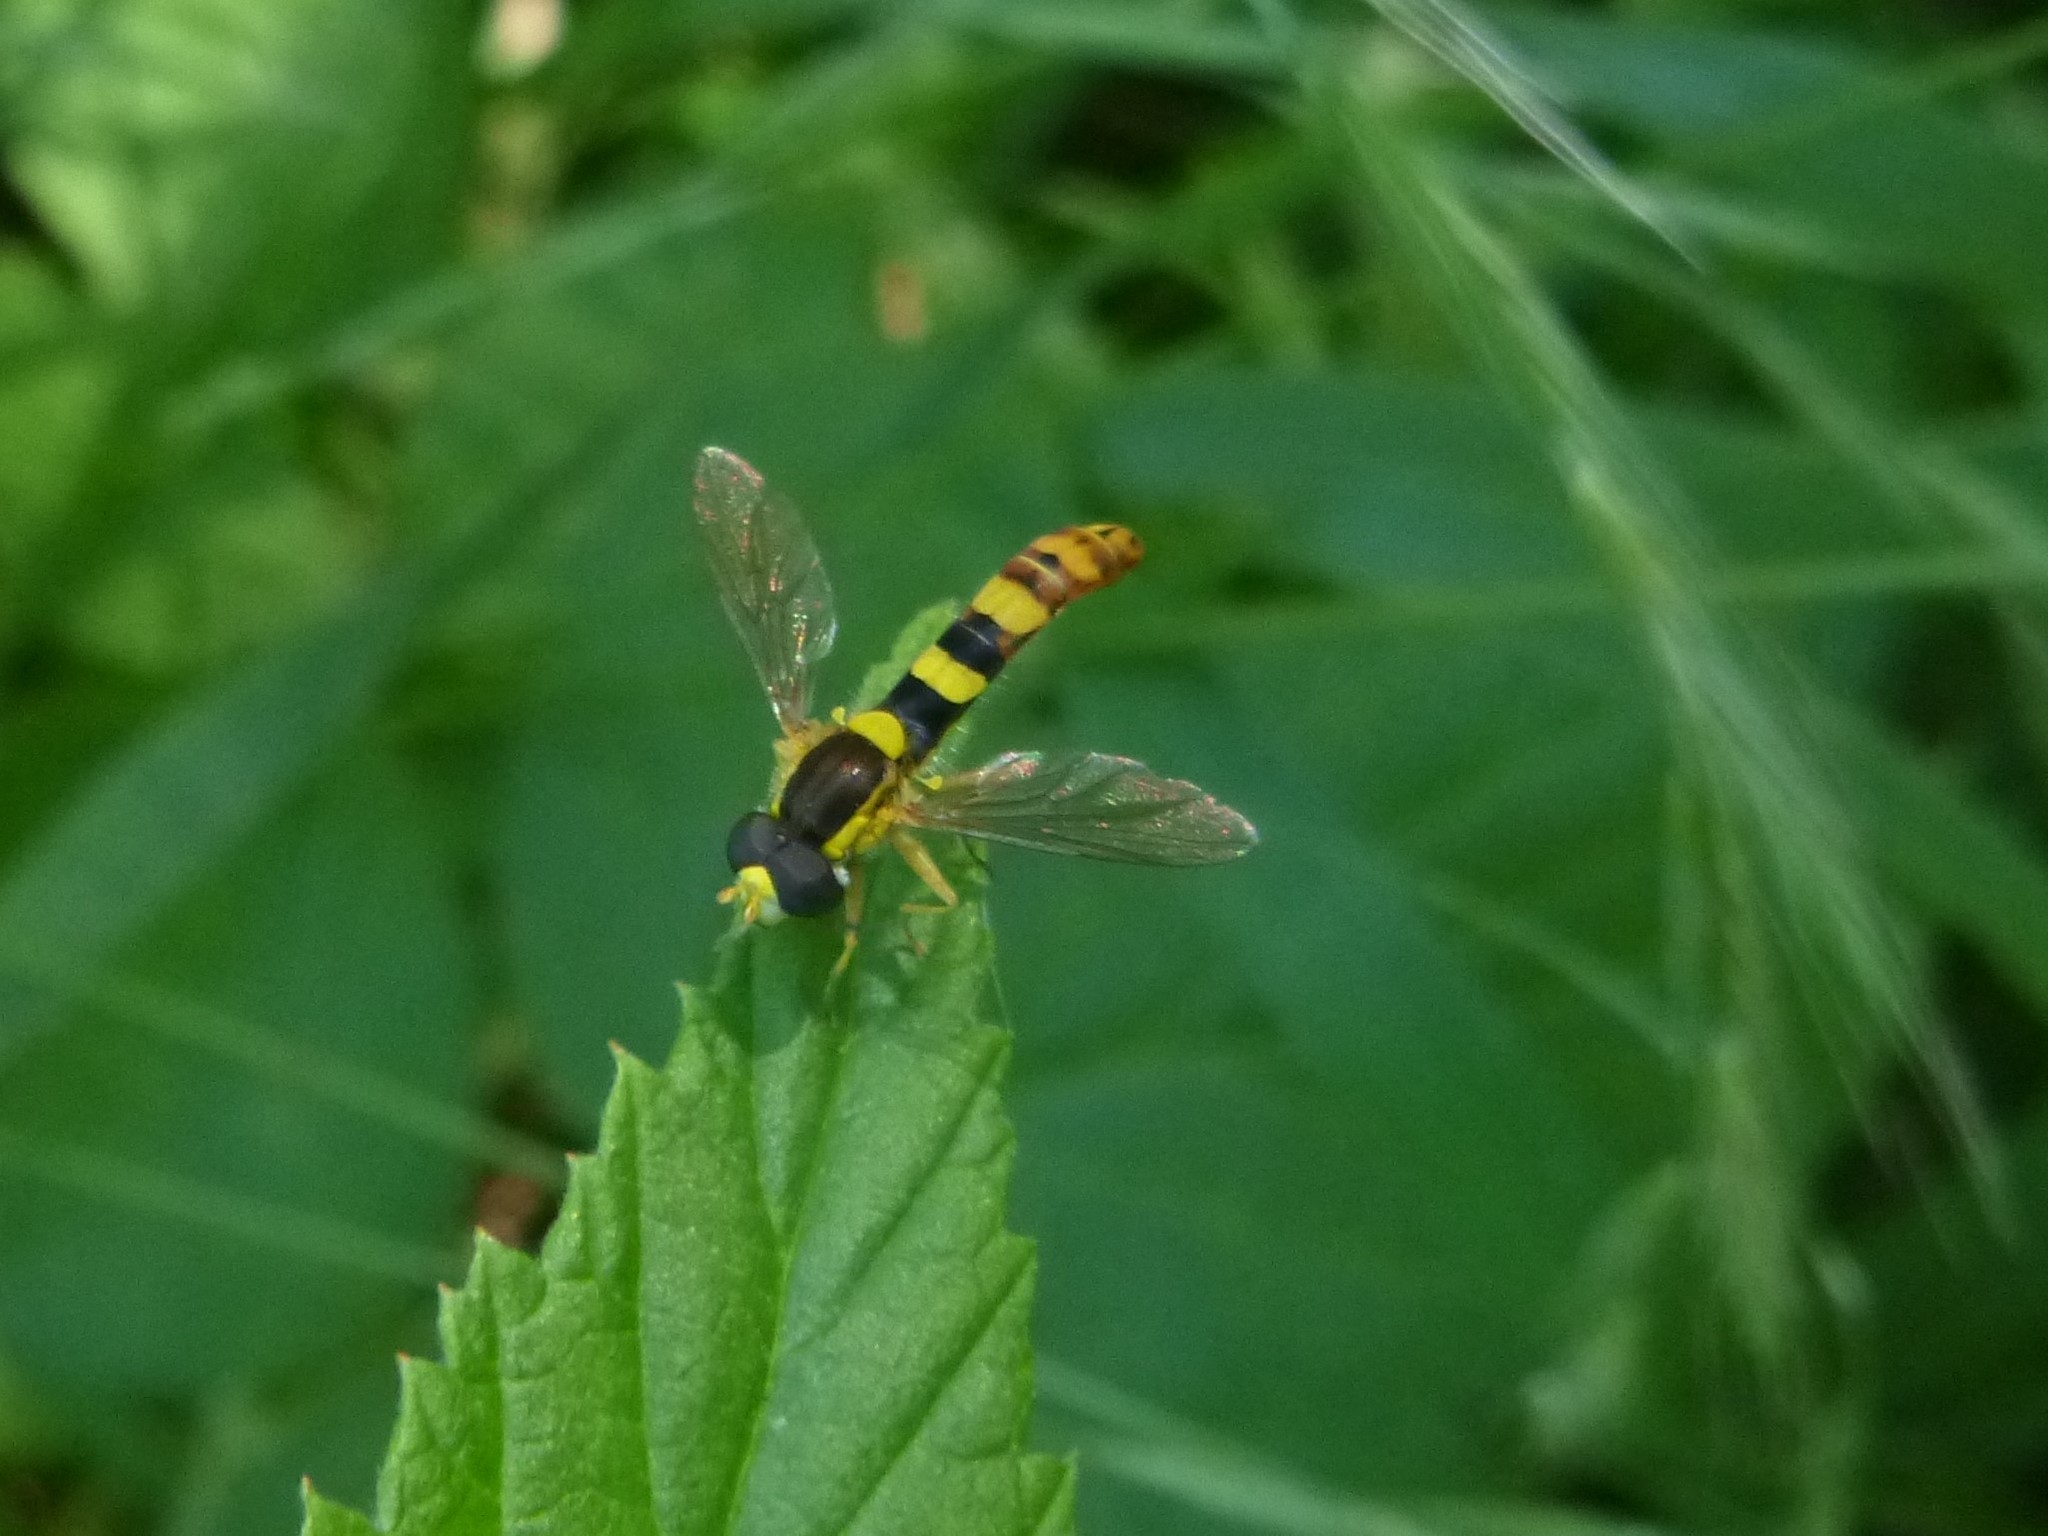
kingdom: Animalia
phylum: Arthropoda
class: Insecta
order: Diptera
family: Syrphidae
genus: Sphaerophoria
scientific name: Sphaerophoria scripta
